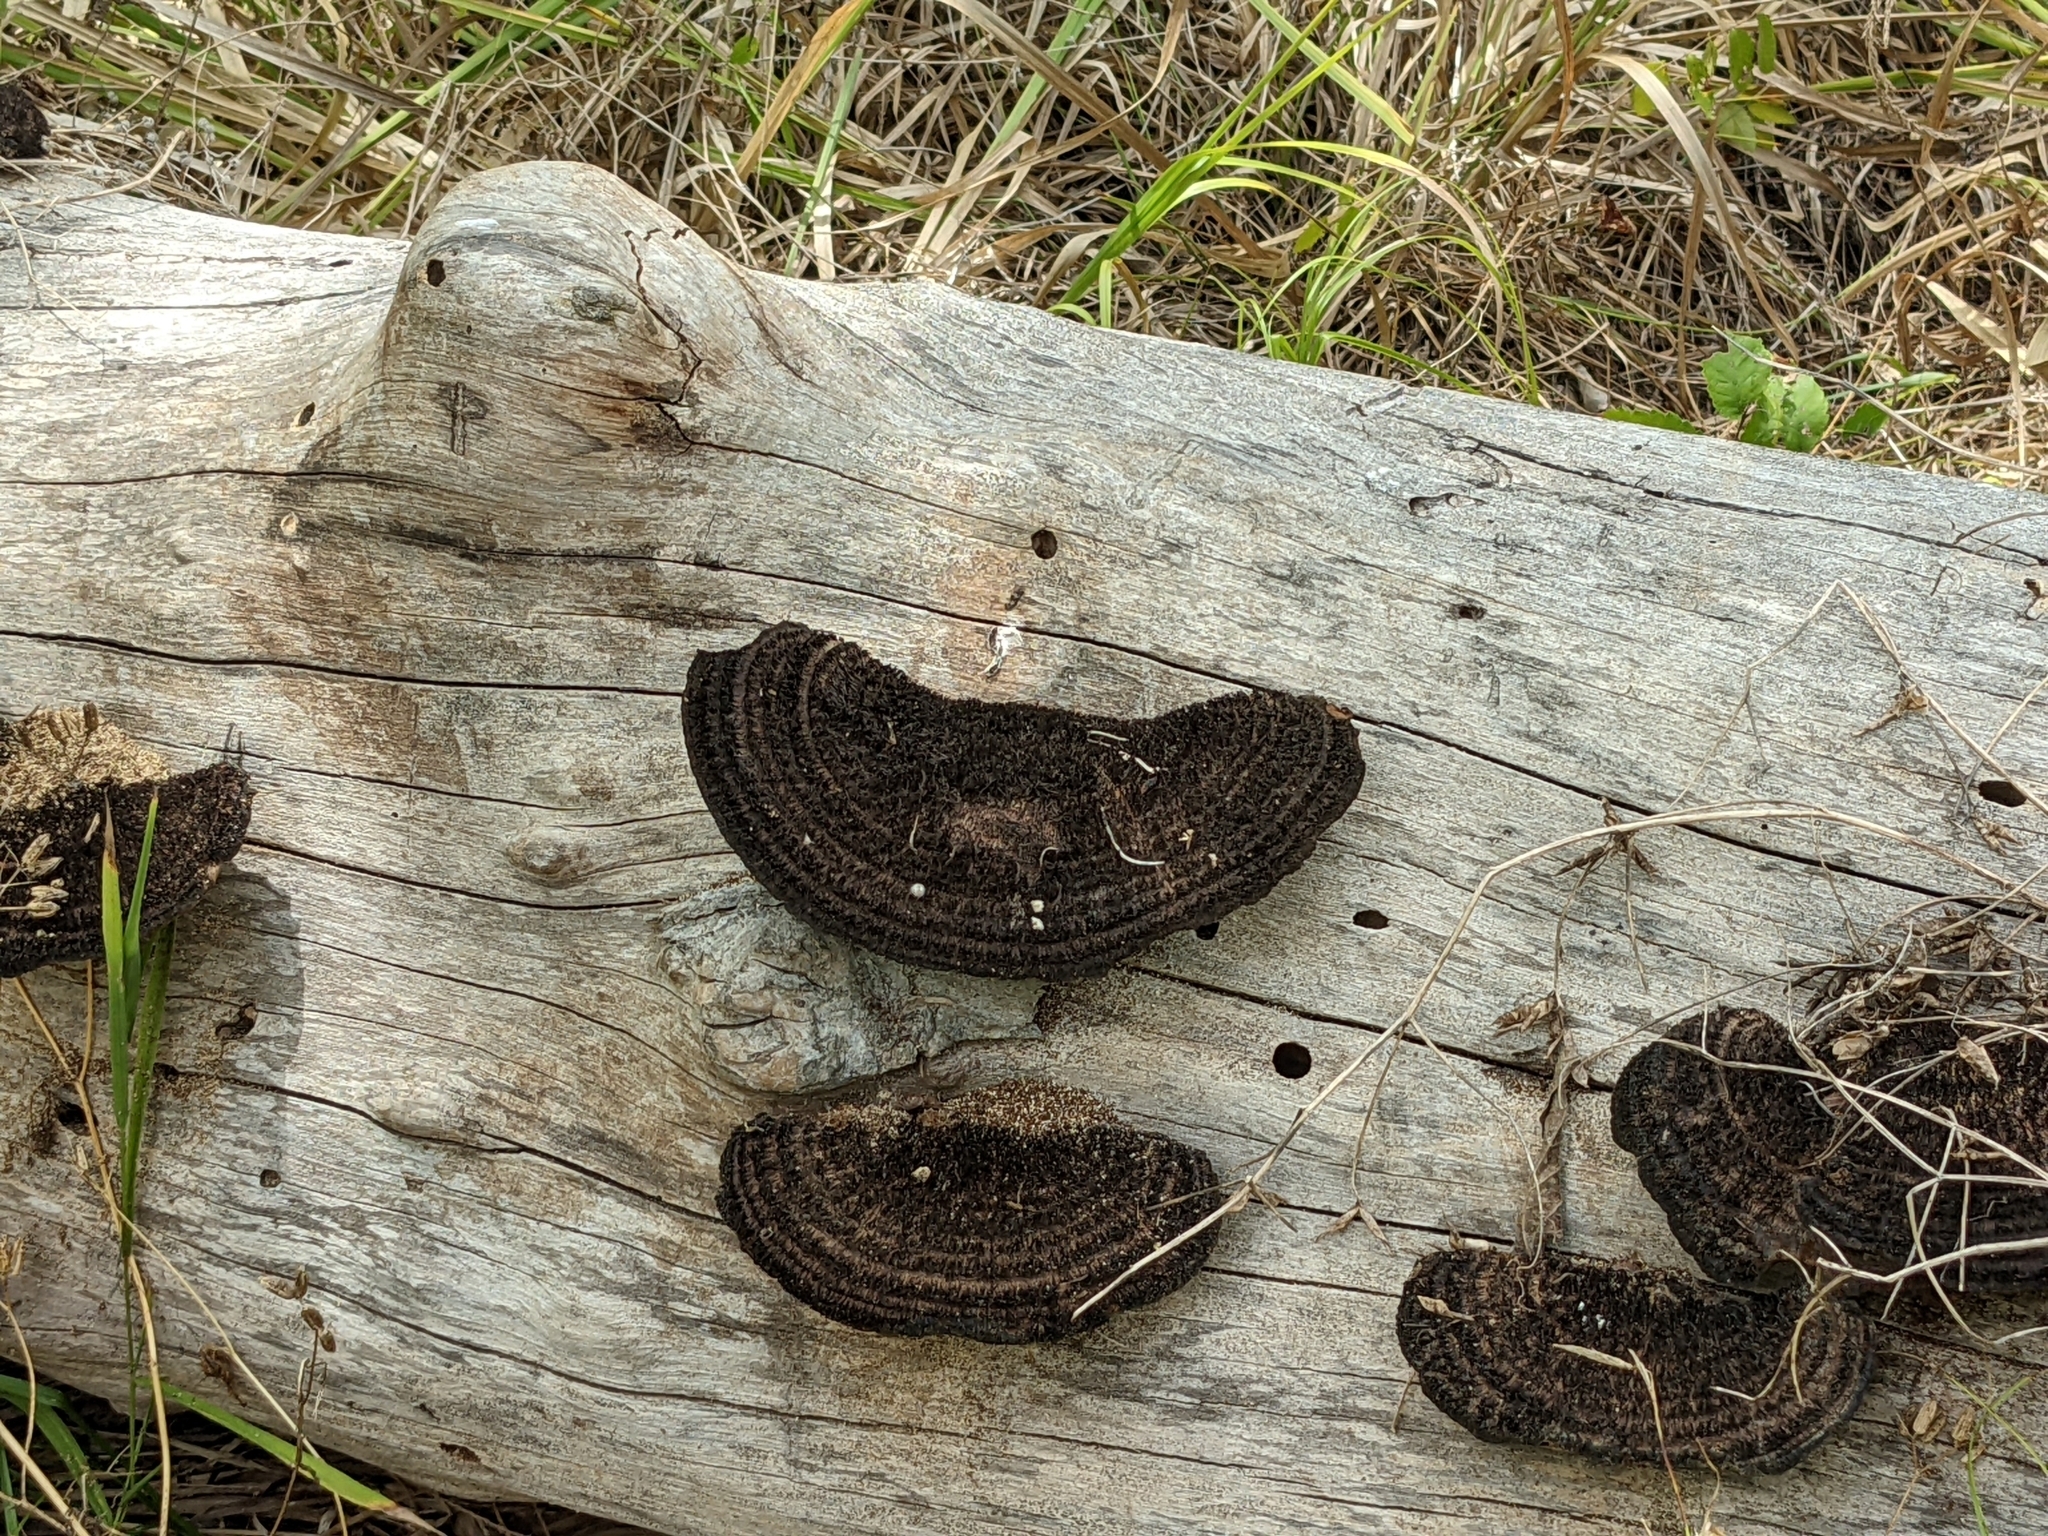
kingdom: Fungi
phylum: Basidiomycota
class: Agaricomycetes
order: Polyporales
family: Cerrenaceae
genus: Cerrena
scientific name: Cerrena hydnoides
